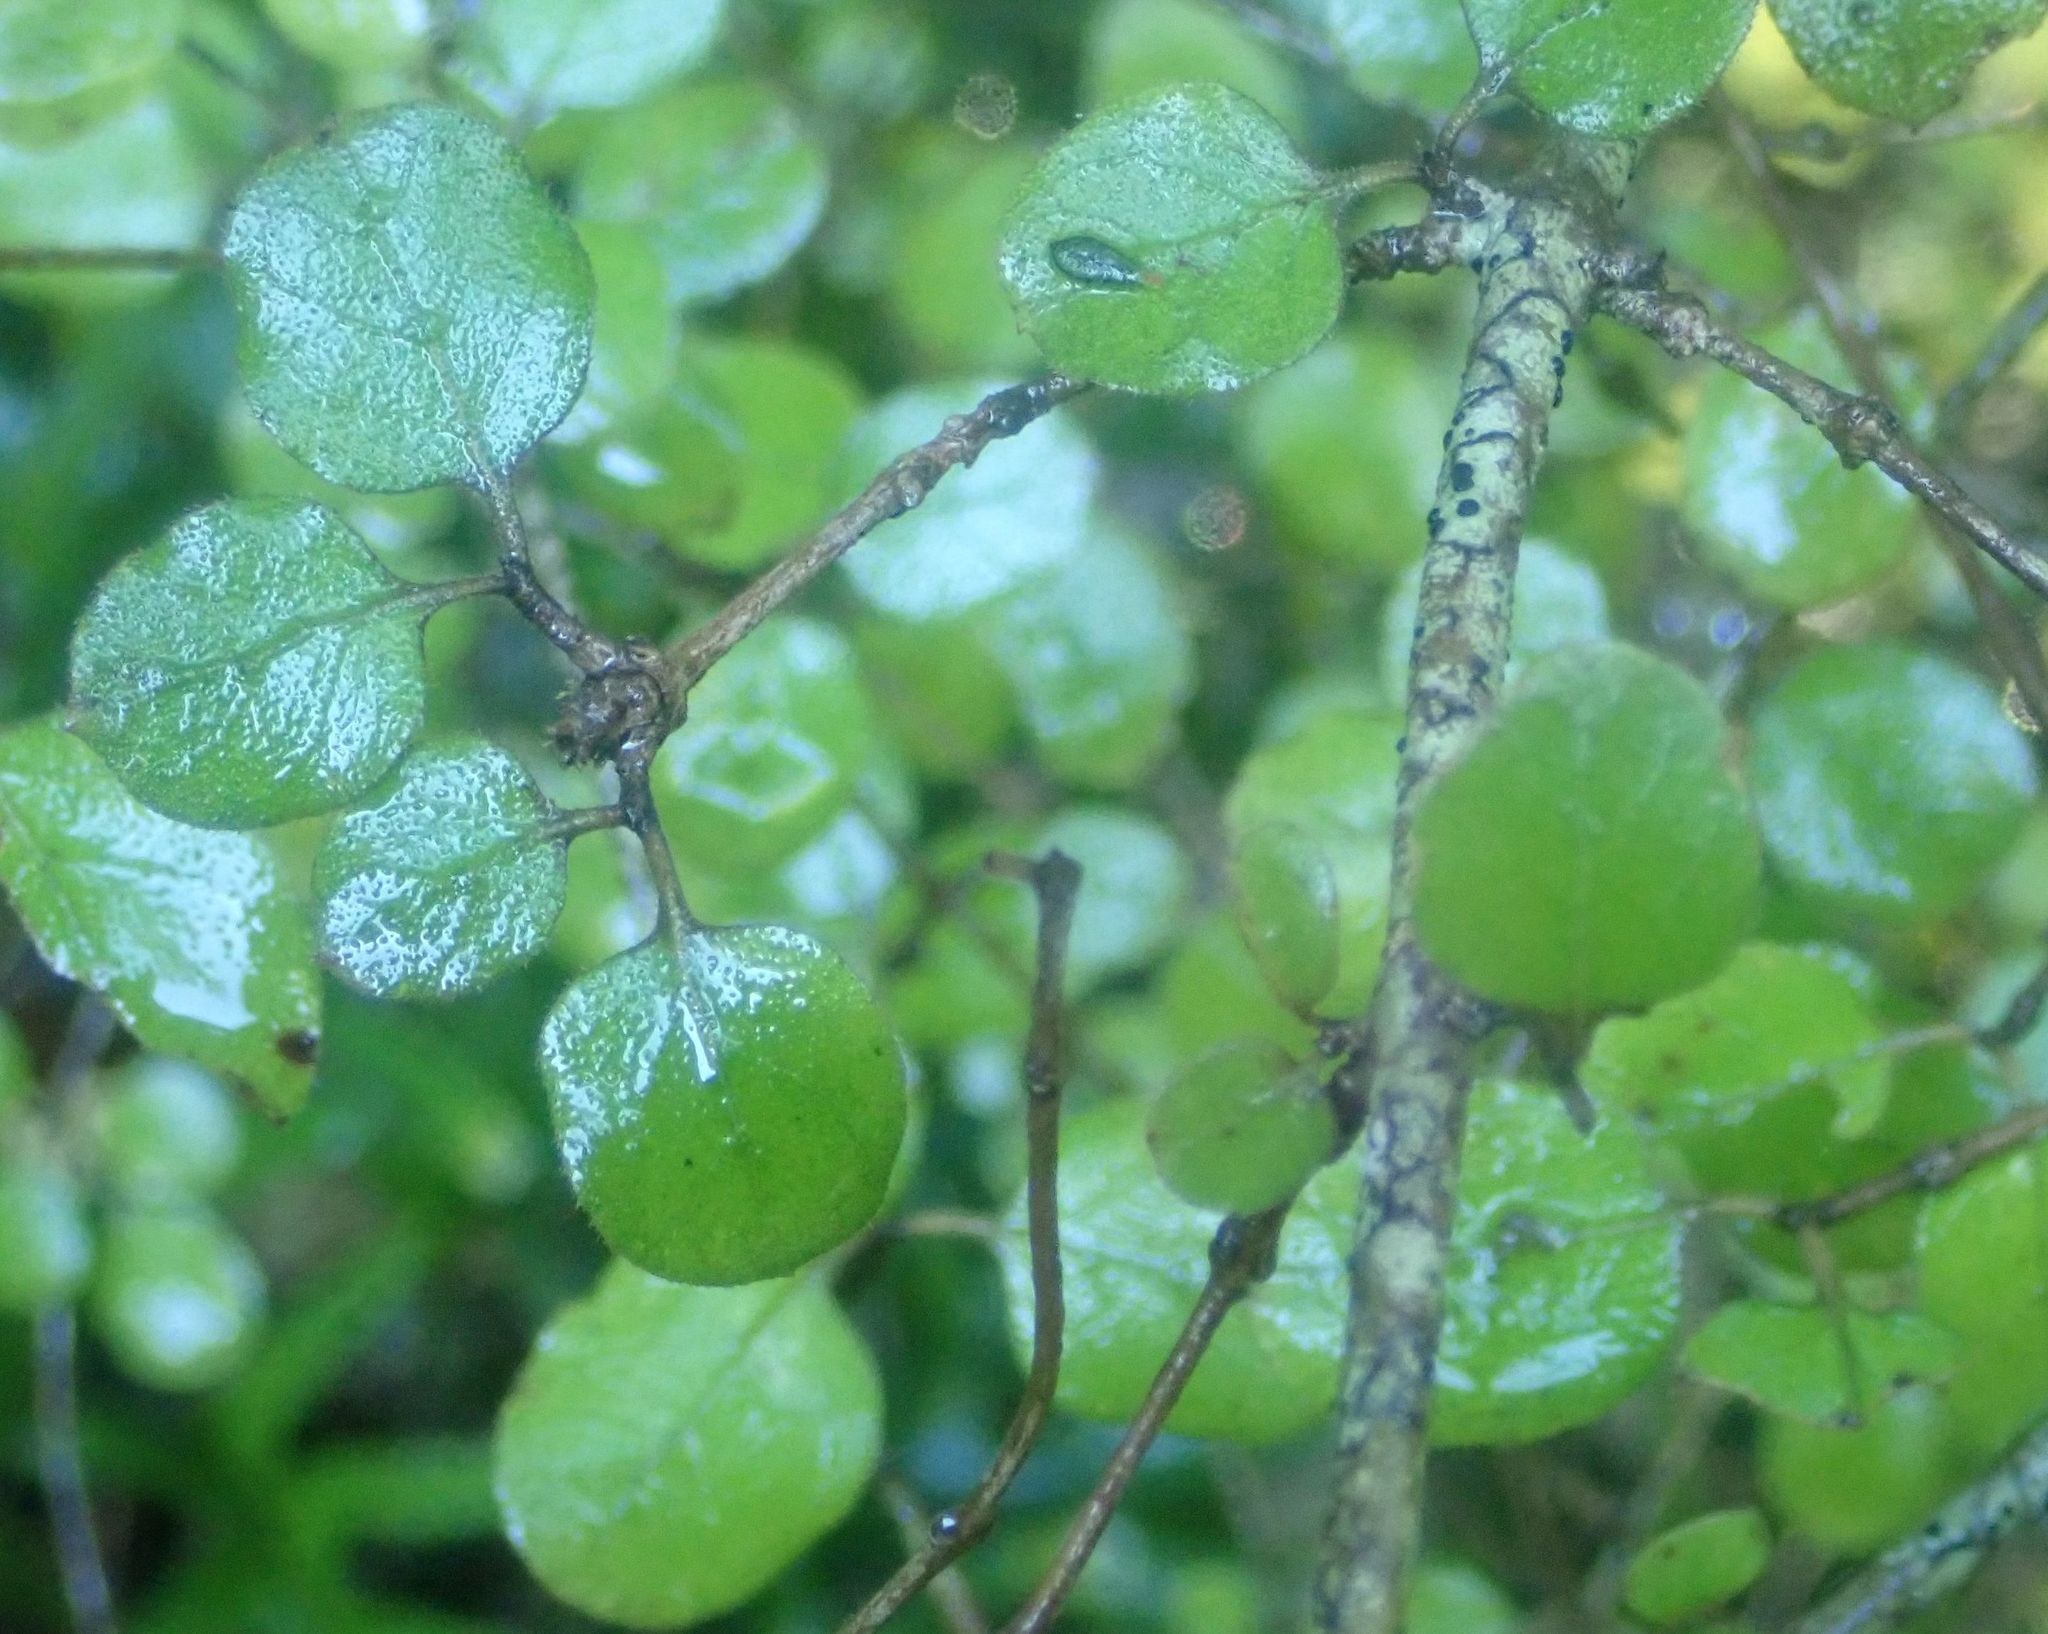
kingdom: Plantae
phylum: Tracheophyta
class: Magnoliopsida
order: Gentianales
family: Rubiaceae
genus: Coprosma
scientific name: Coprosma rotundifolia
